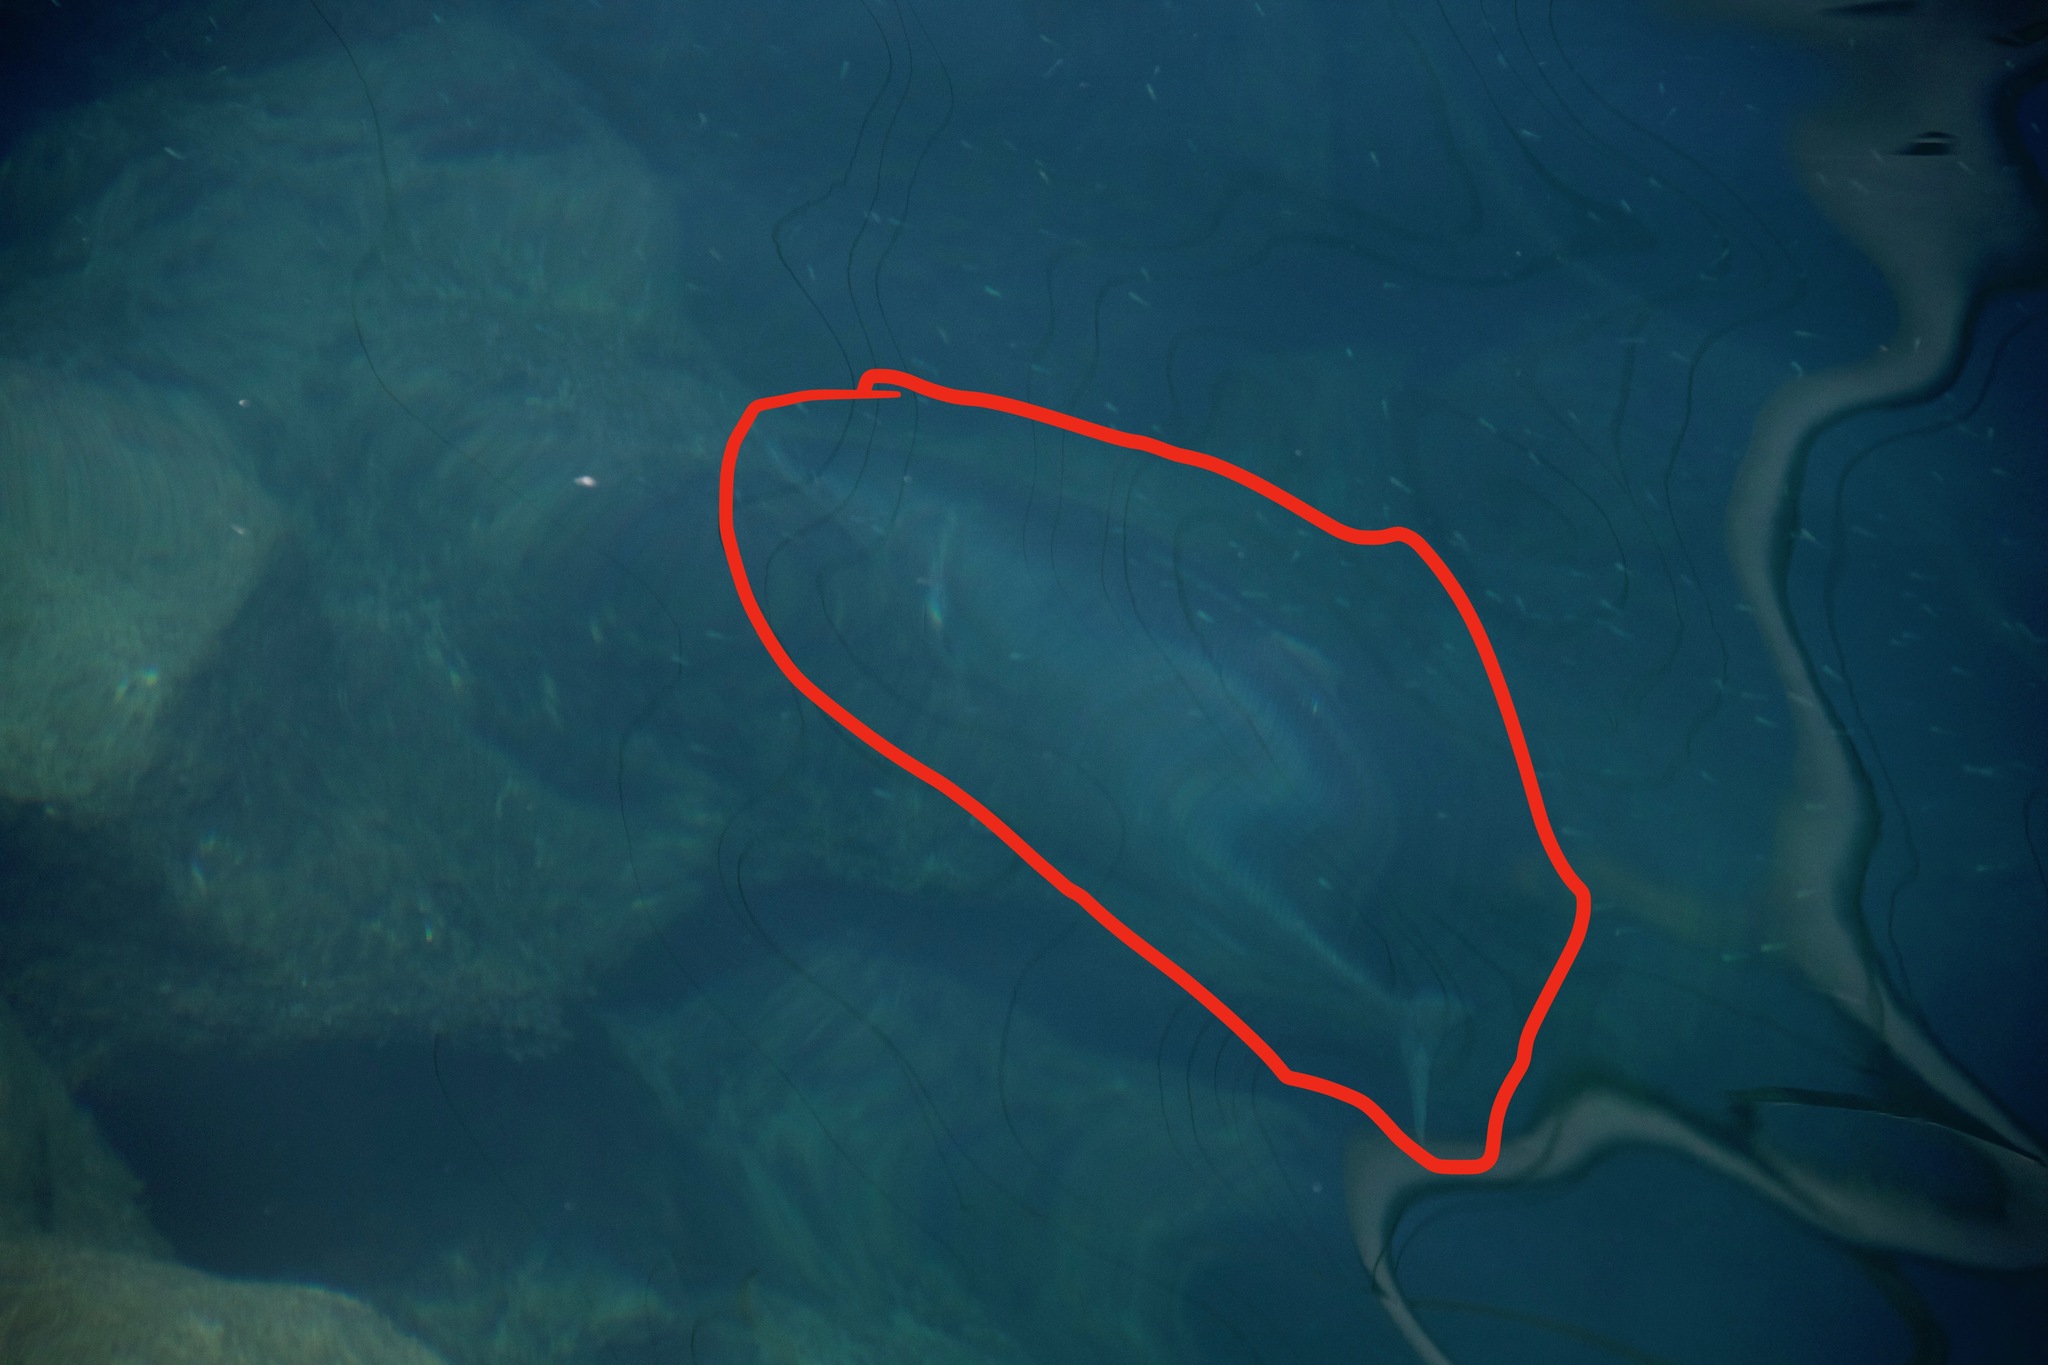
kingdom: Animalia
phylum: Chordata
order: Perciformes
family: Pomatomidae
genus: Pomatomus
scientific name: Pomatomus saltatrix
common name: Bluefish
